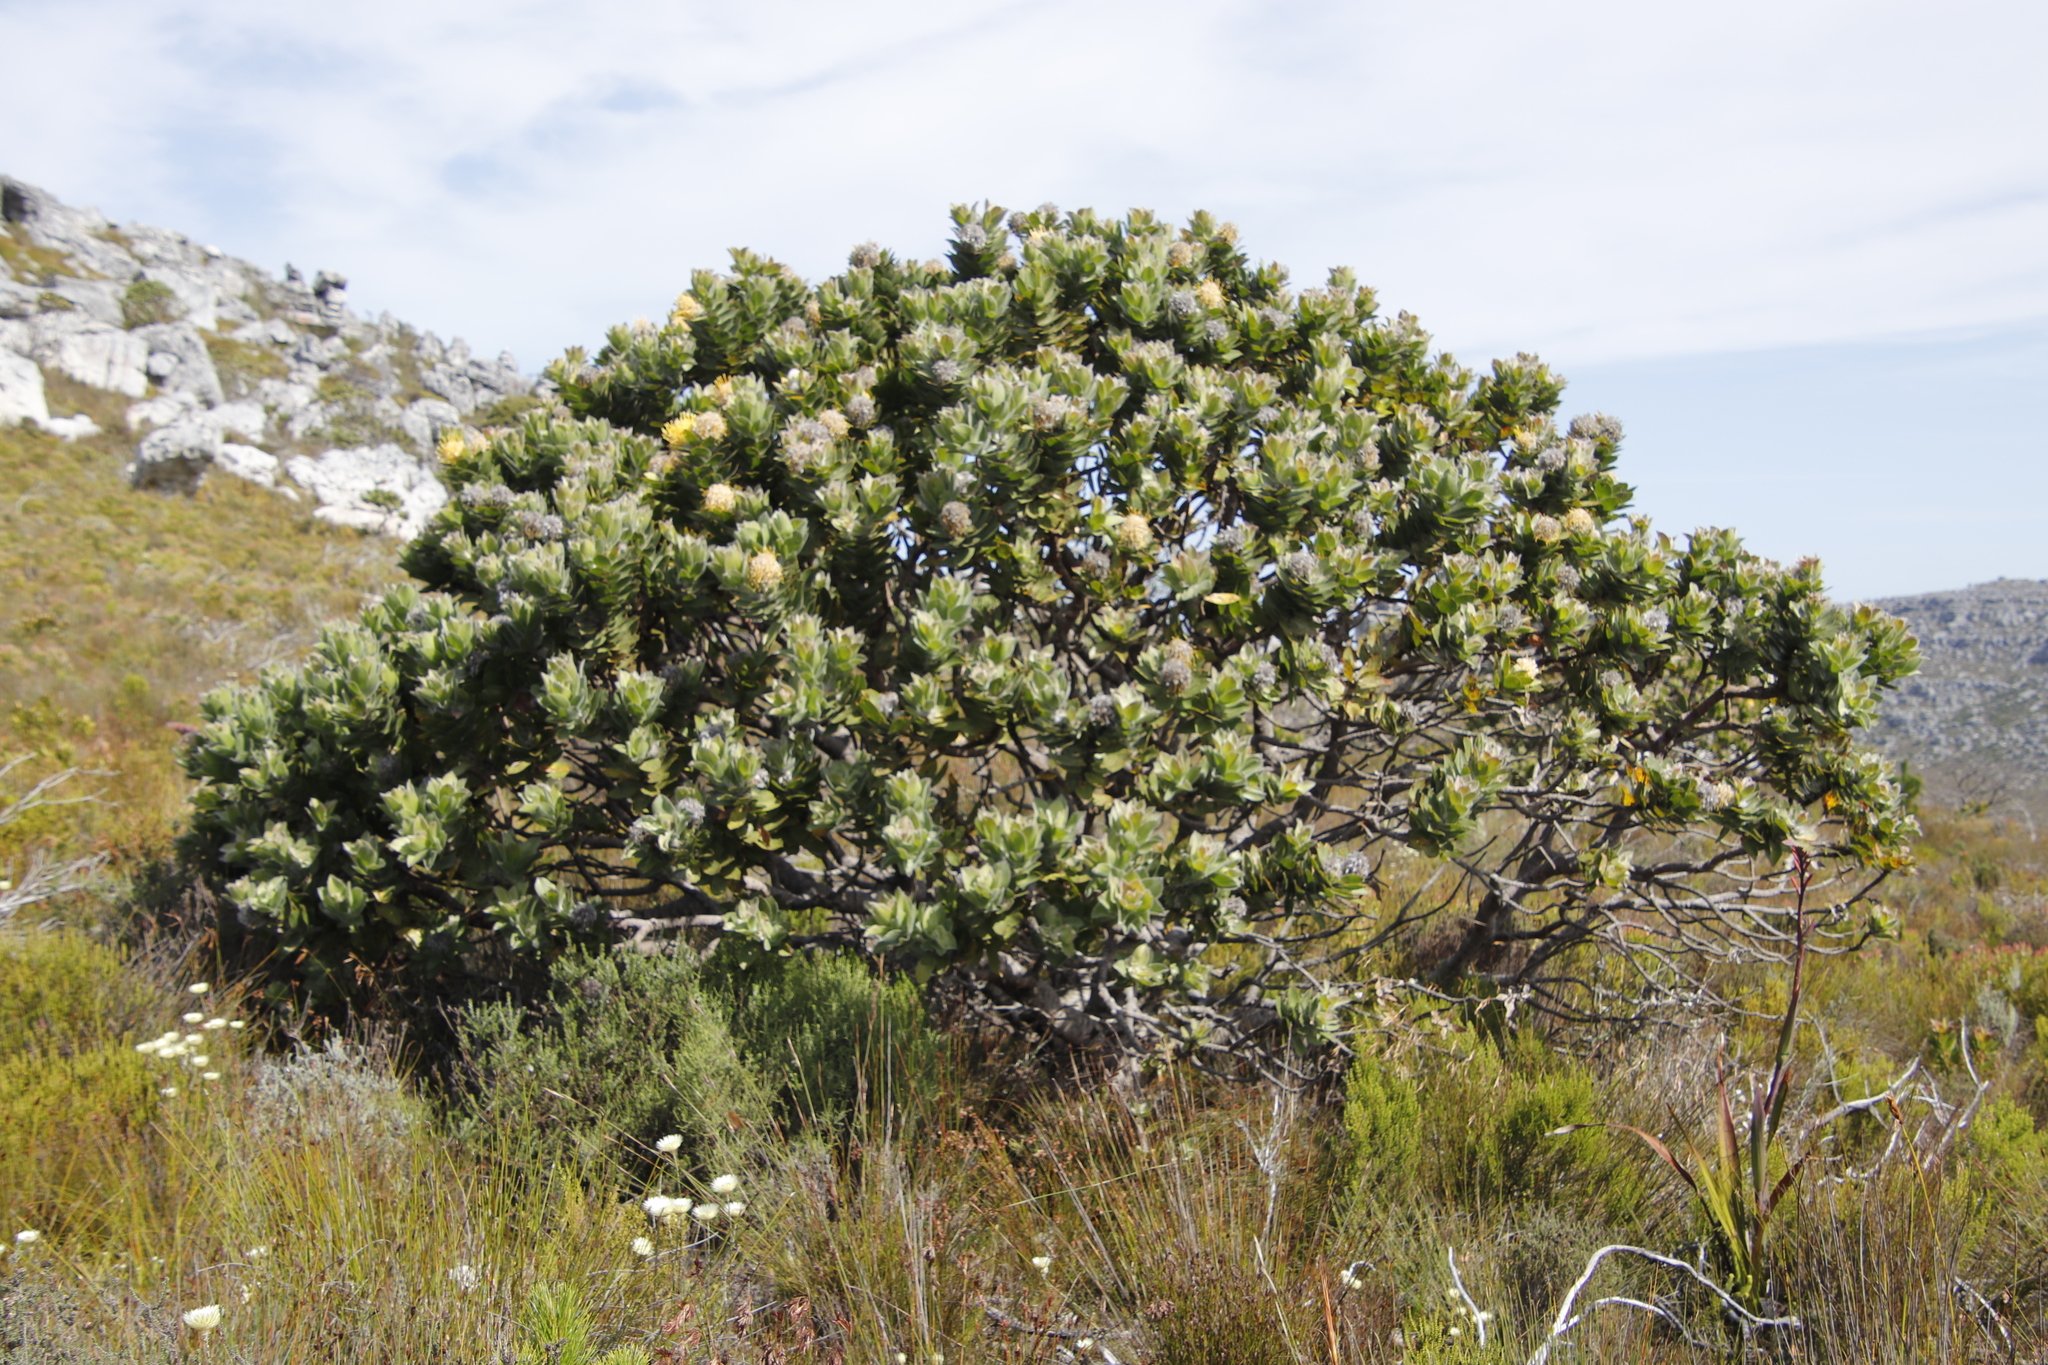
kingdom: Plantae
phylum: Tracheophyta
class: Magnoliopsida
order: Proteales
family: Proteaceae
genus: Leucospermum
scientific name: Leucospermum conocarpodendron
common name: Tree pincushion
